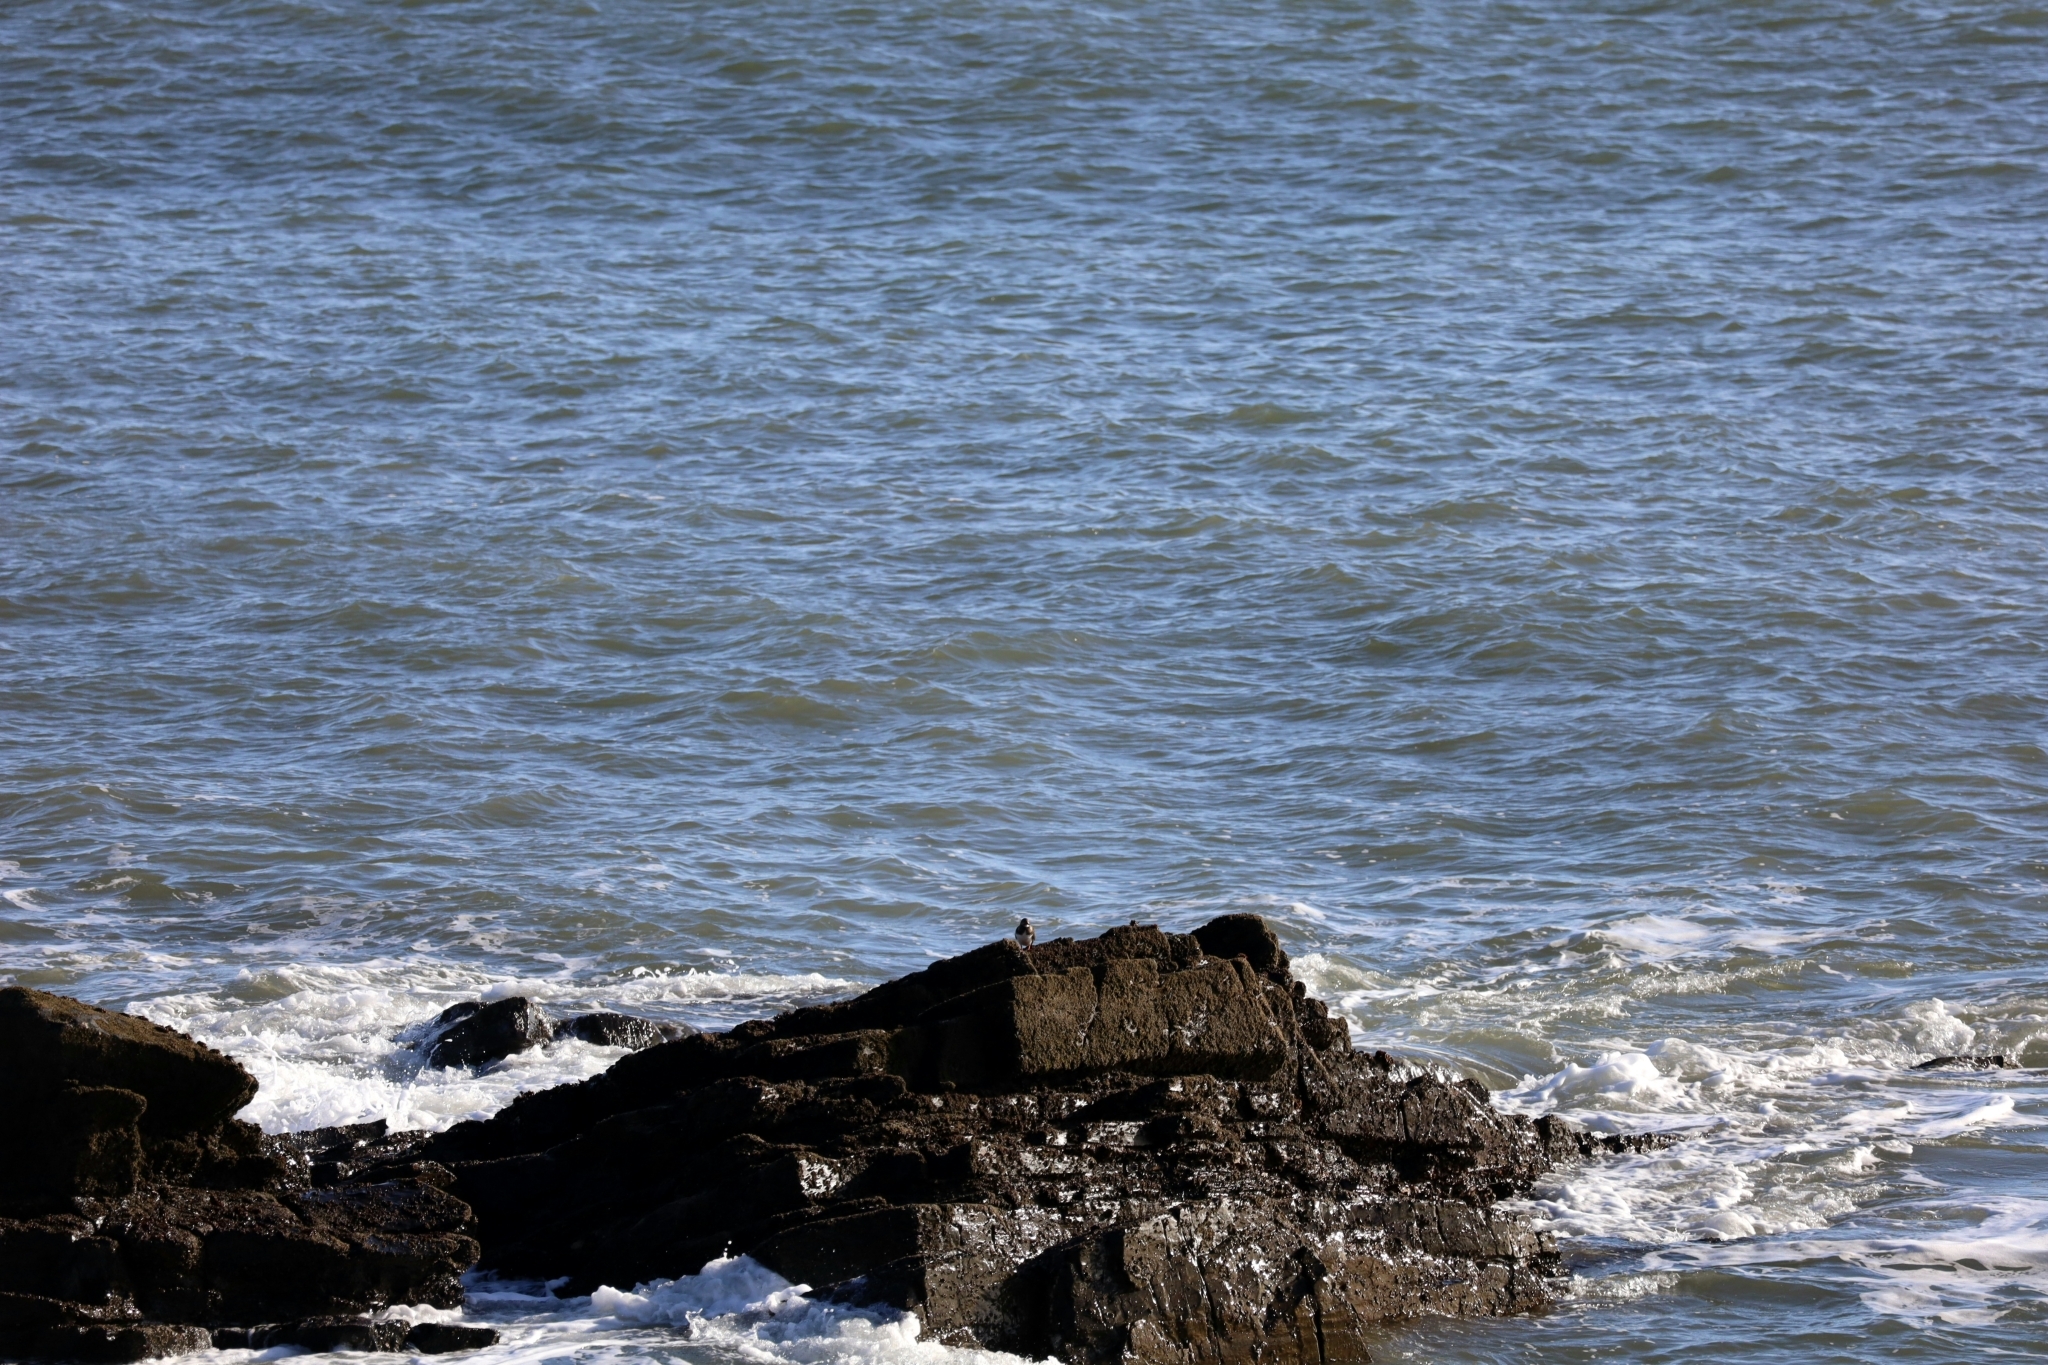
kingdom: Animalia
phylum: Chordata
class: Aves
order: Charadriiformes
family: Scolopacidae
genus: Arenaria
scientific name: Arenaria interpres
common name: Ruddy turnstone
